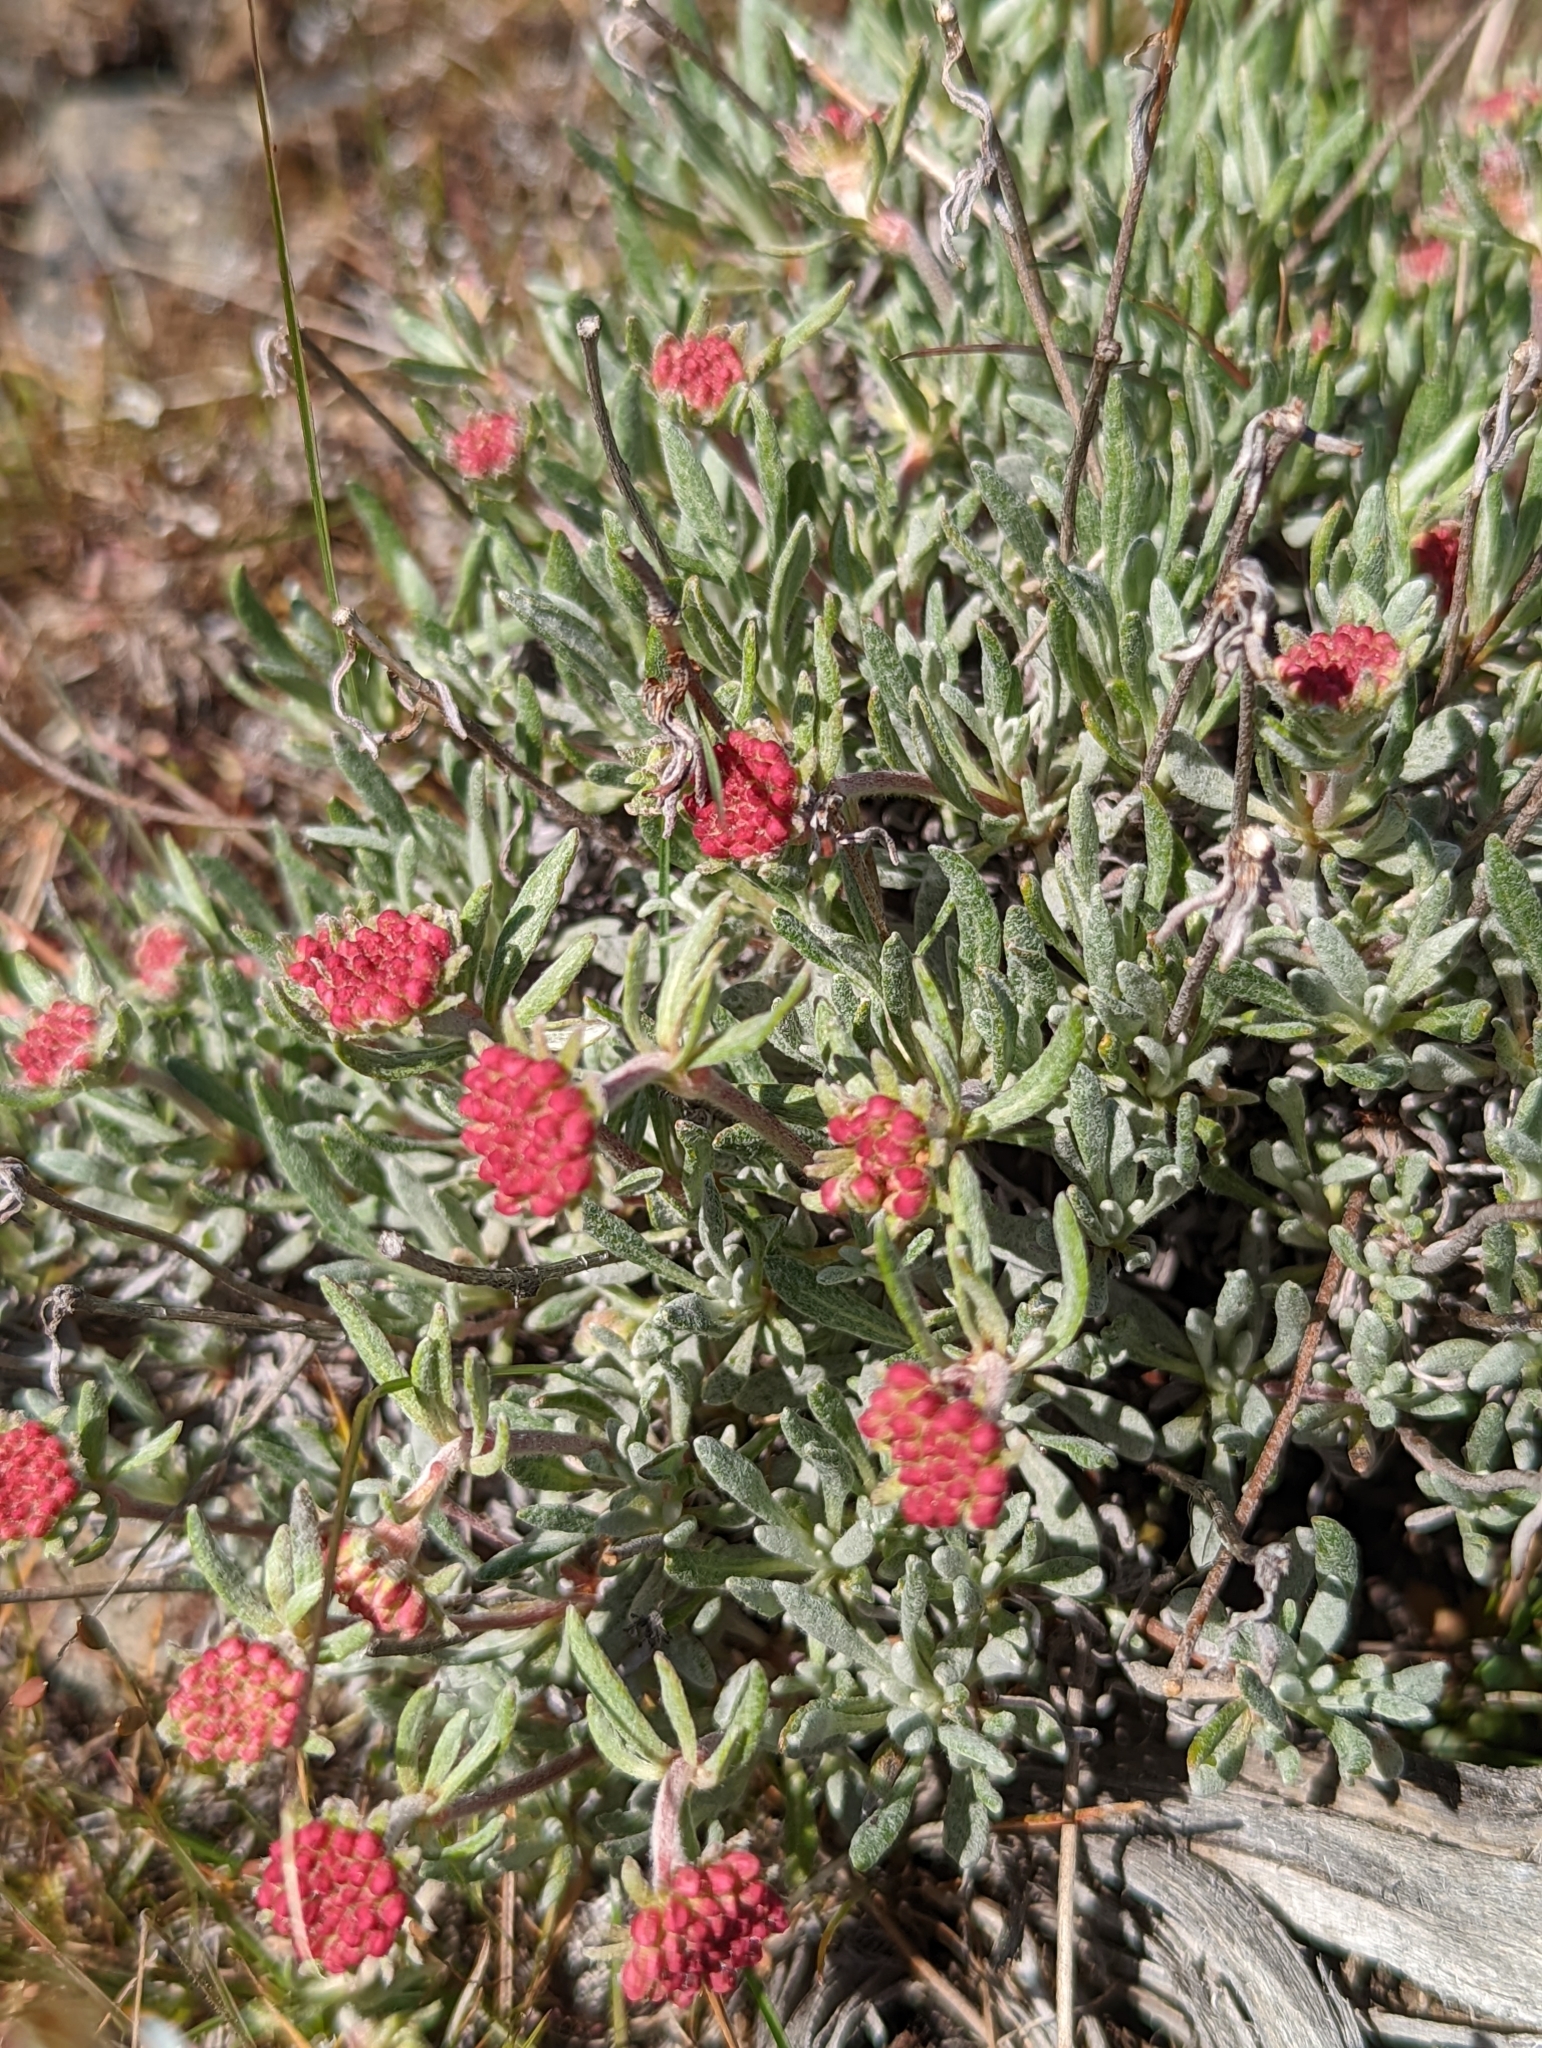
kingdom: Plantae
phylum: Tracheophyta
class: Magnoliopsida
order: Caryophyllales
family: Polygonaceae
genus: Eriogonum
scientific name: Eriogonum douglasii
